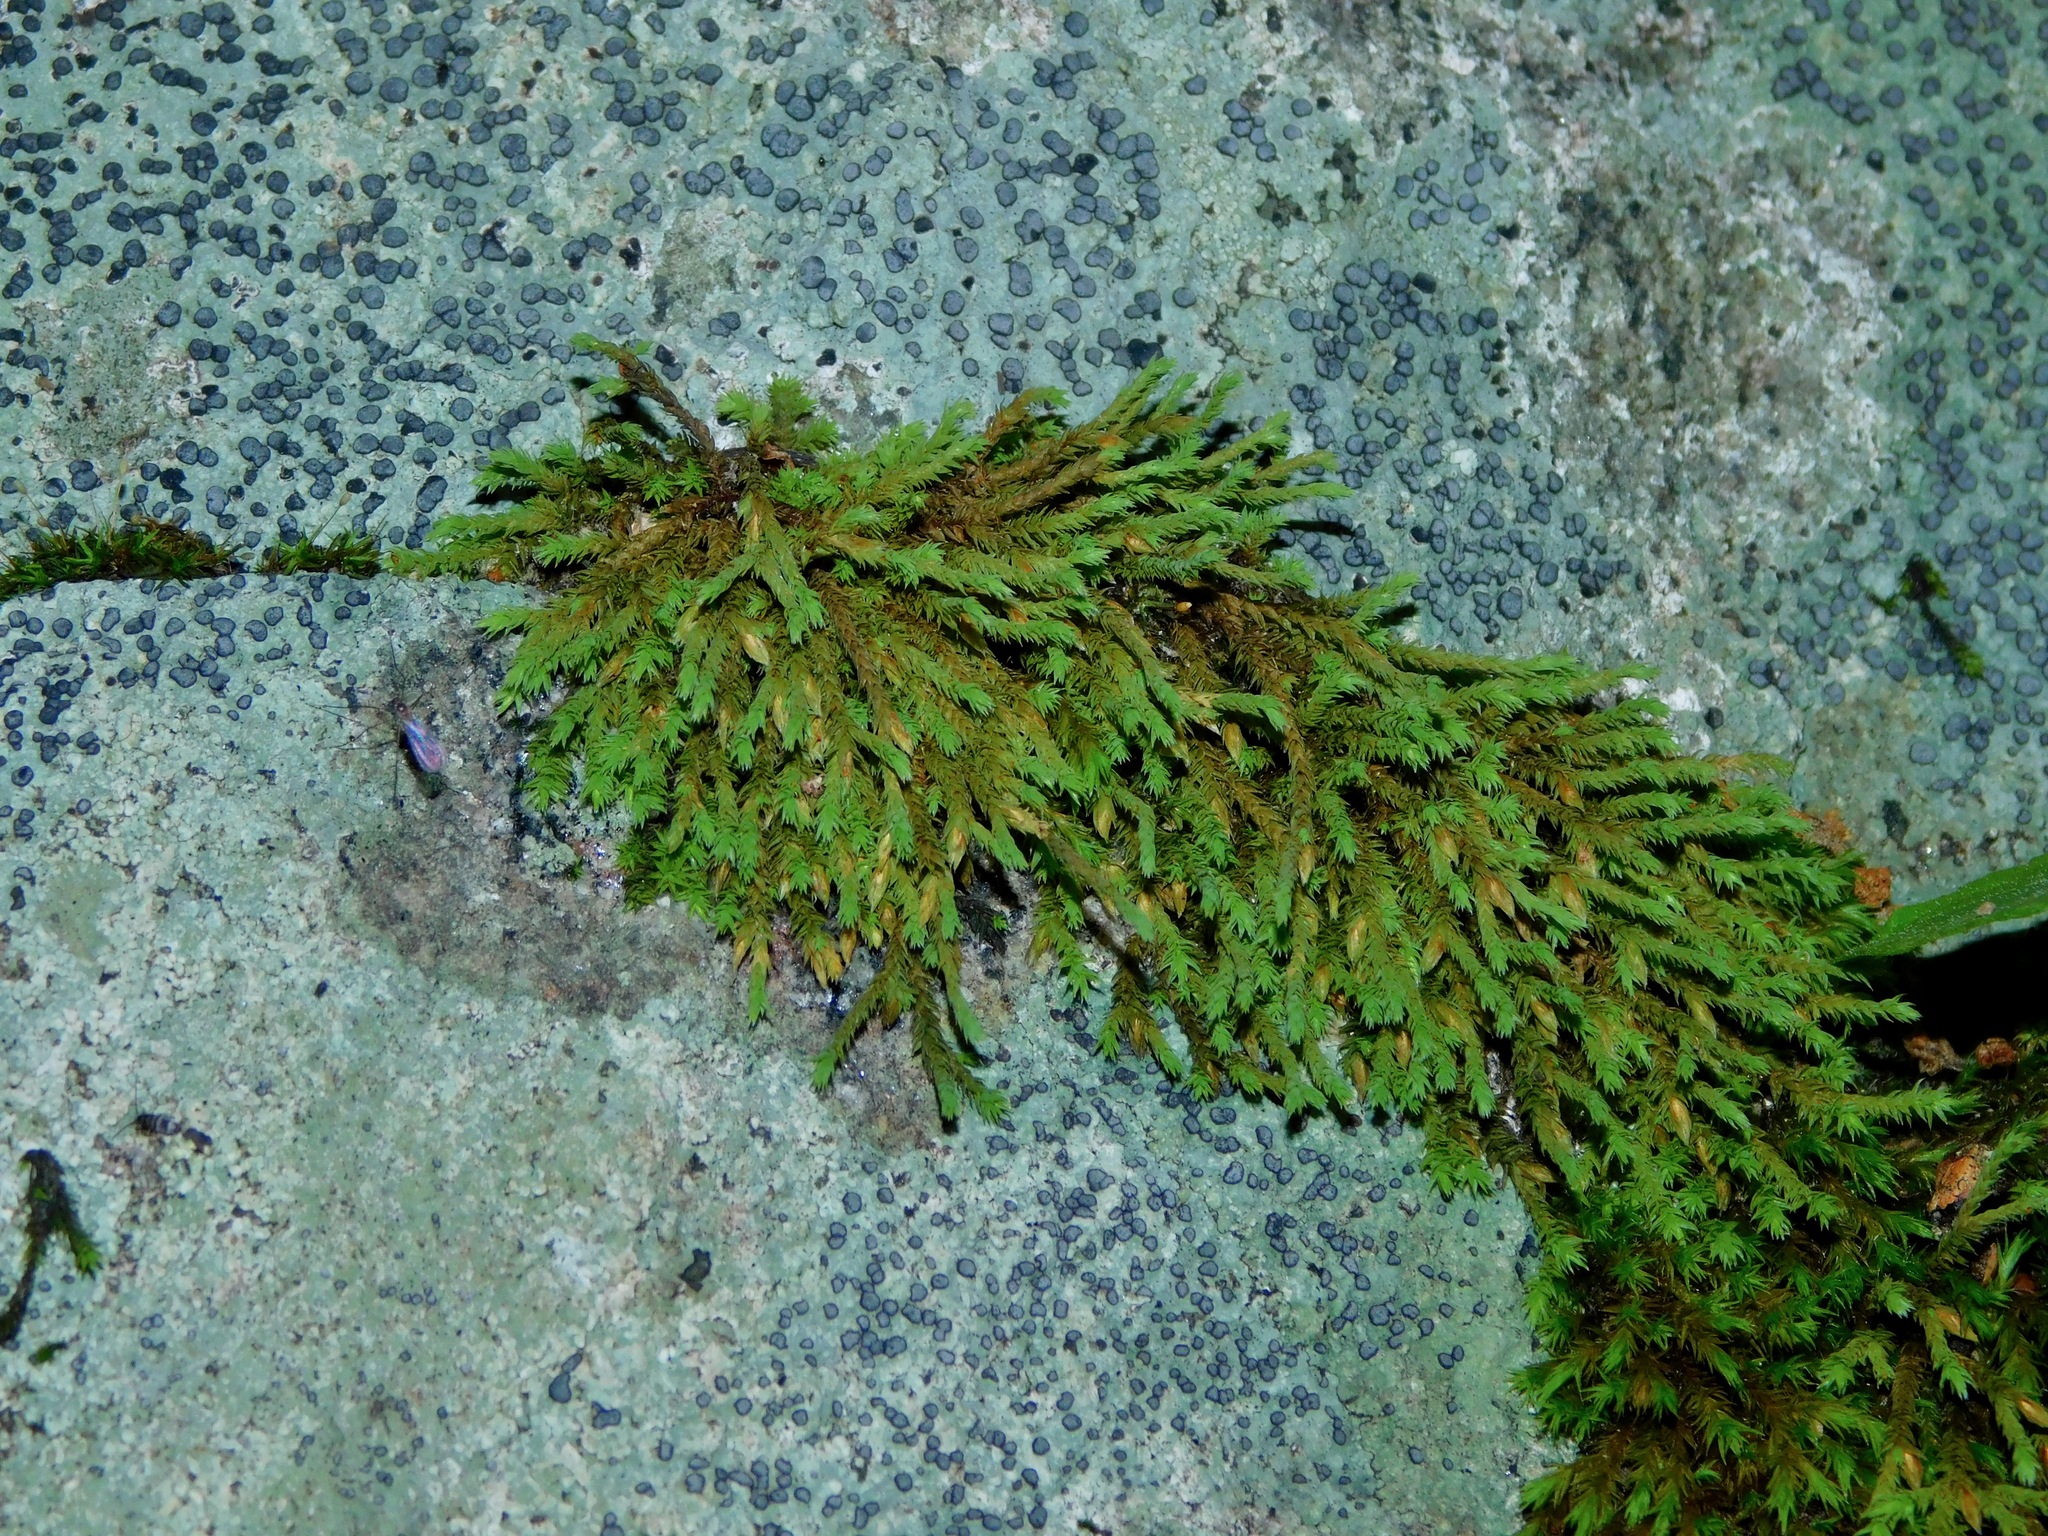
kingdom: Plantae
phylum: Bryophyta
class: Bryopsida
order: Hedwigiales
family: Hedwigiaceae
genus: Hedwigia
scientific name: Hedwigia ciliata
